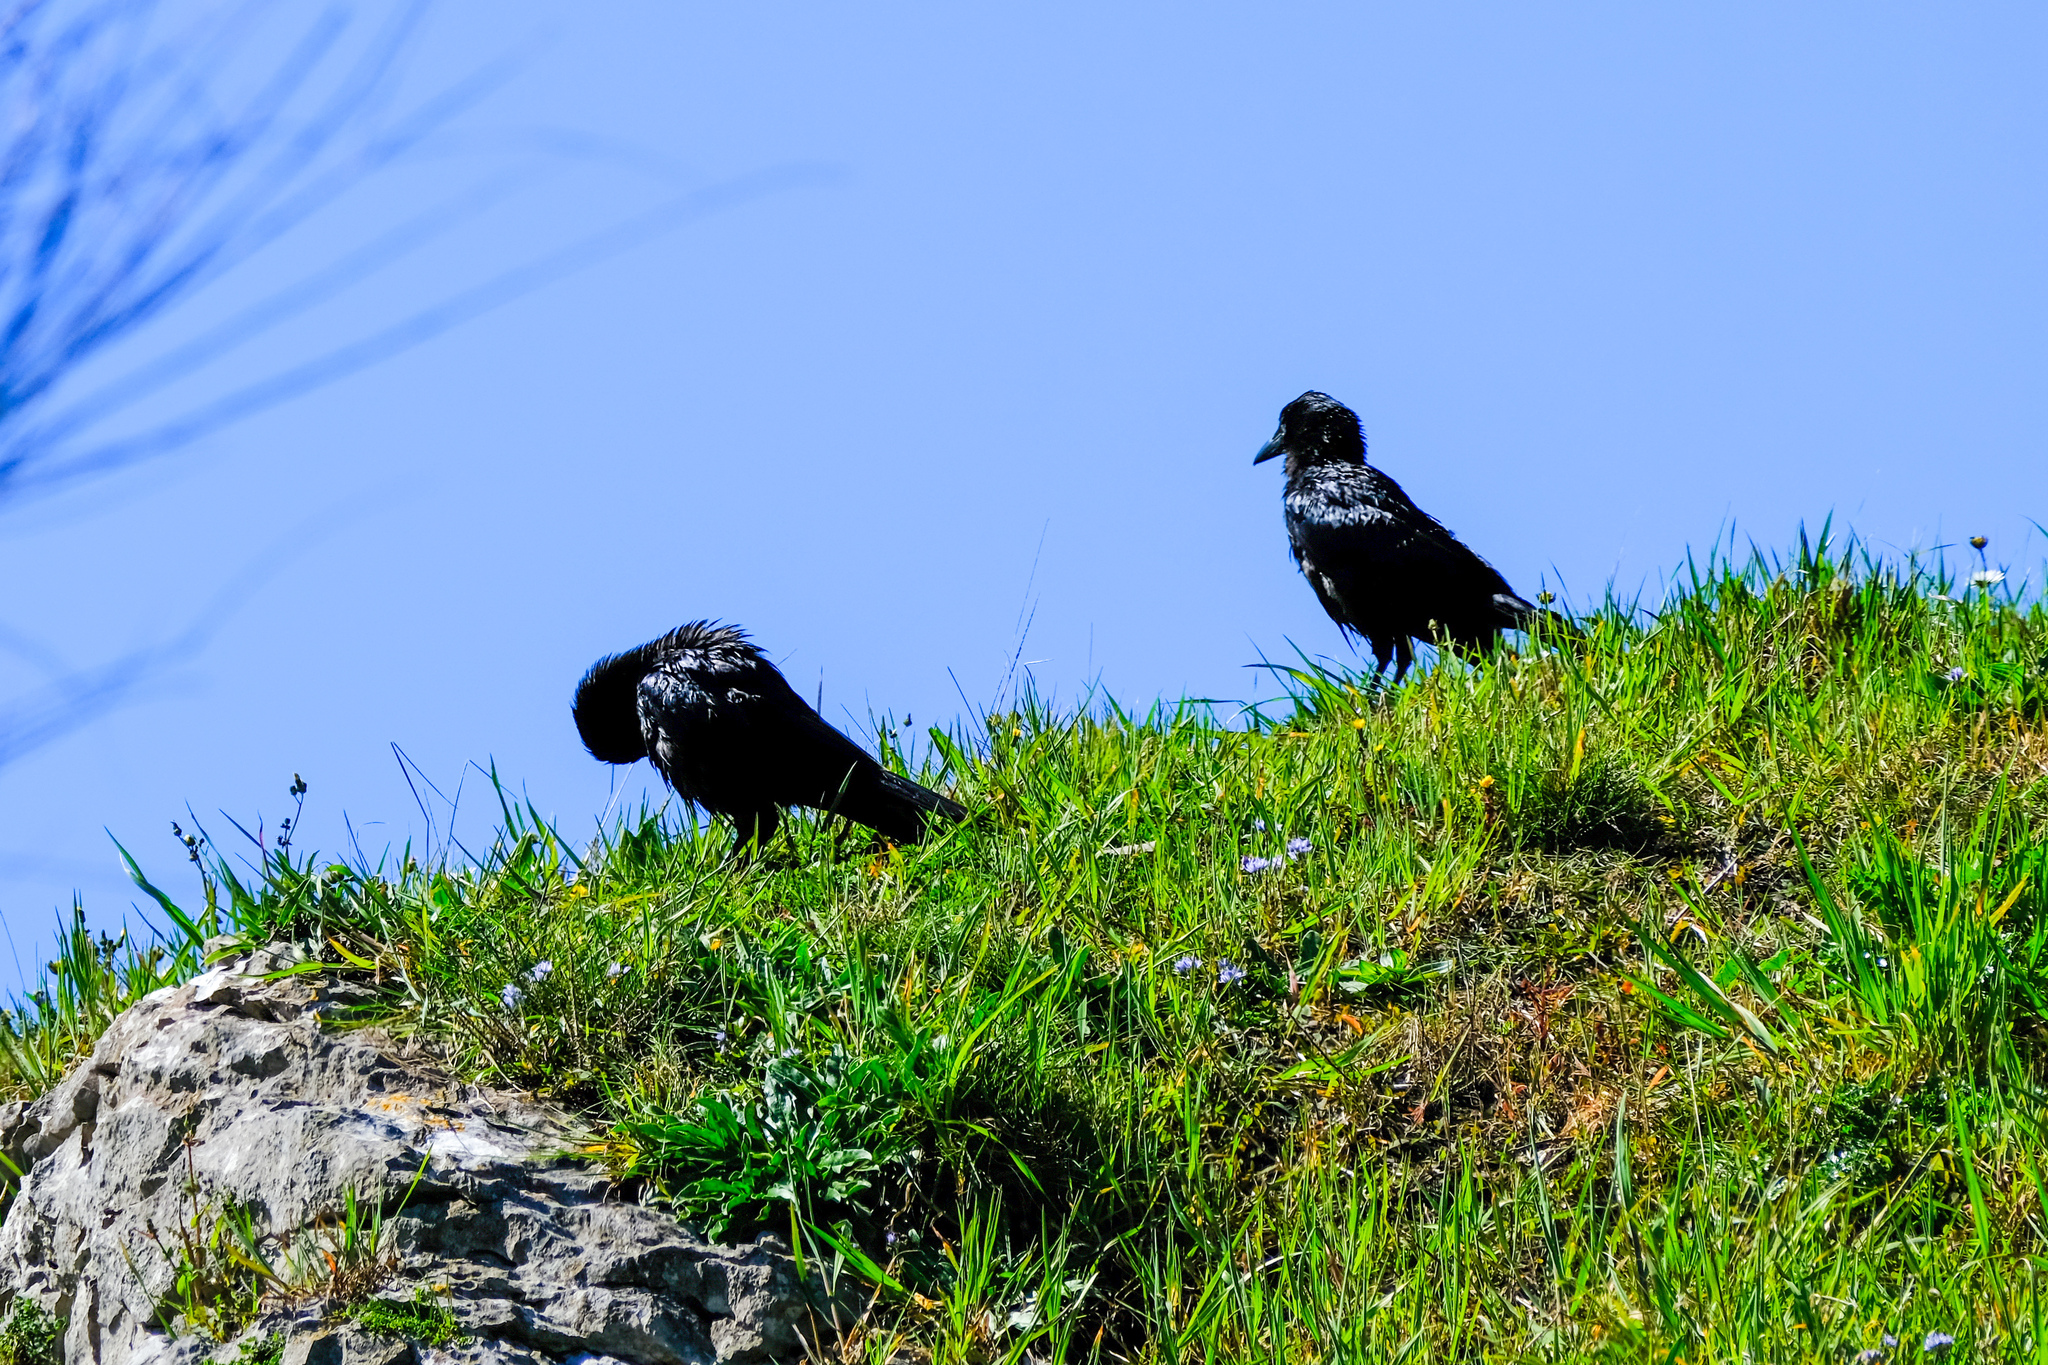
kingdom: Animalia
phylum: Chordata
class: Aves
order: Passeriformes
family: Corvidae
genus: Corvus
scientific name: Corvus corone
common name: Carrion crow
